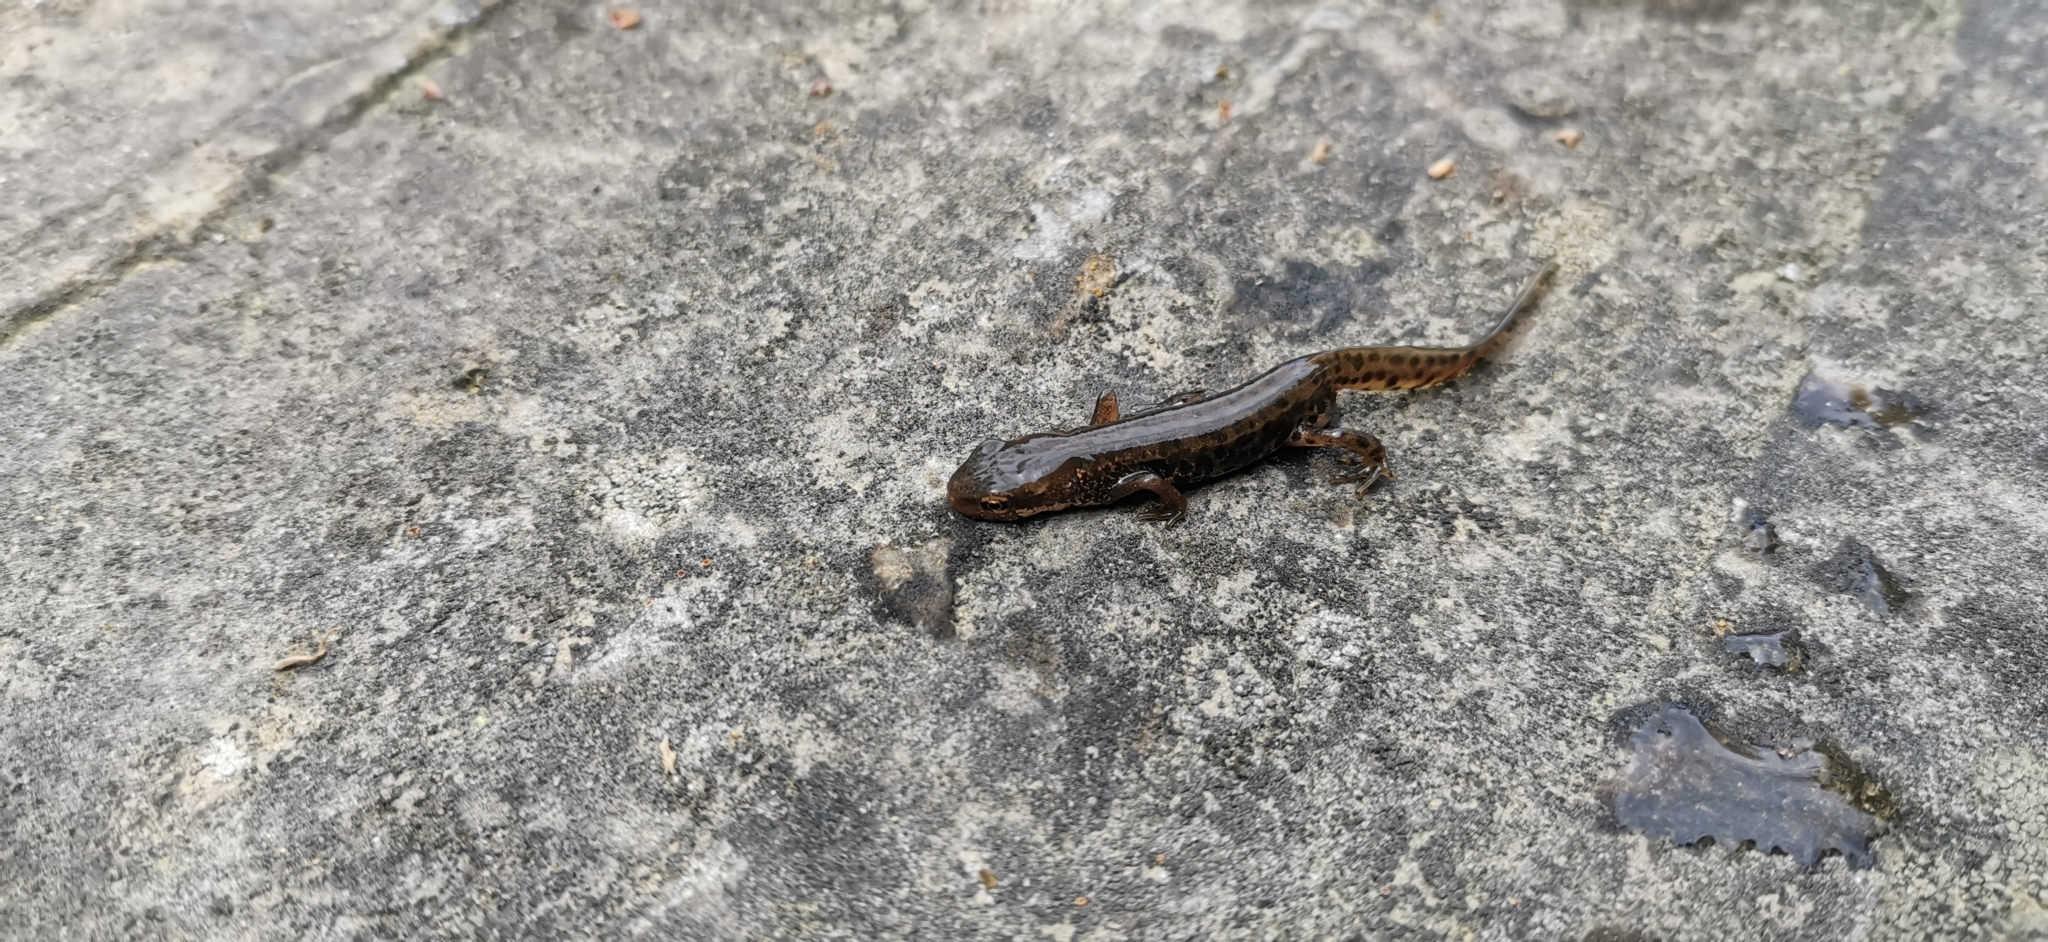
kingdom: Animalia
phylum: Chordata
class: Amphibia
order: Caudata
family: Salamandridae
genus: Lissotriton
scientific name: Lissotriton italicus
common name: Italian newt
